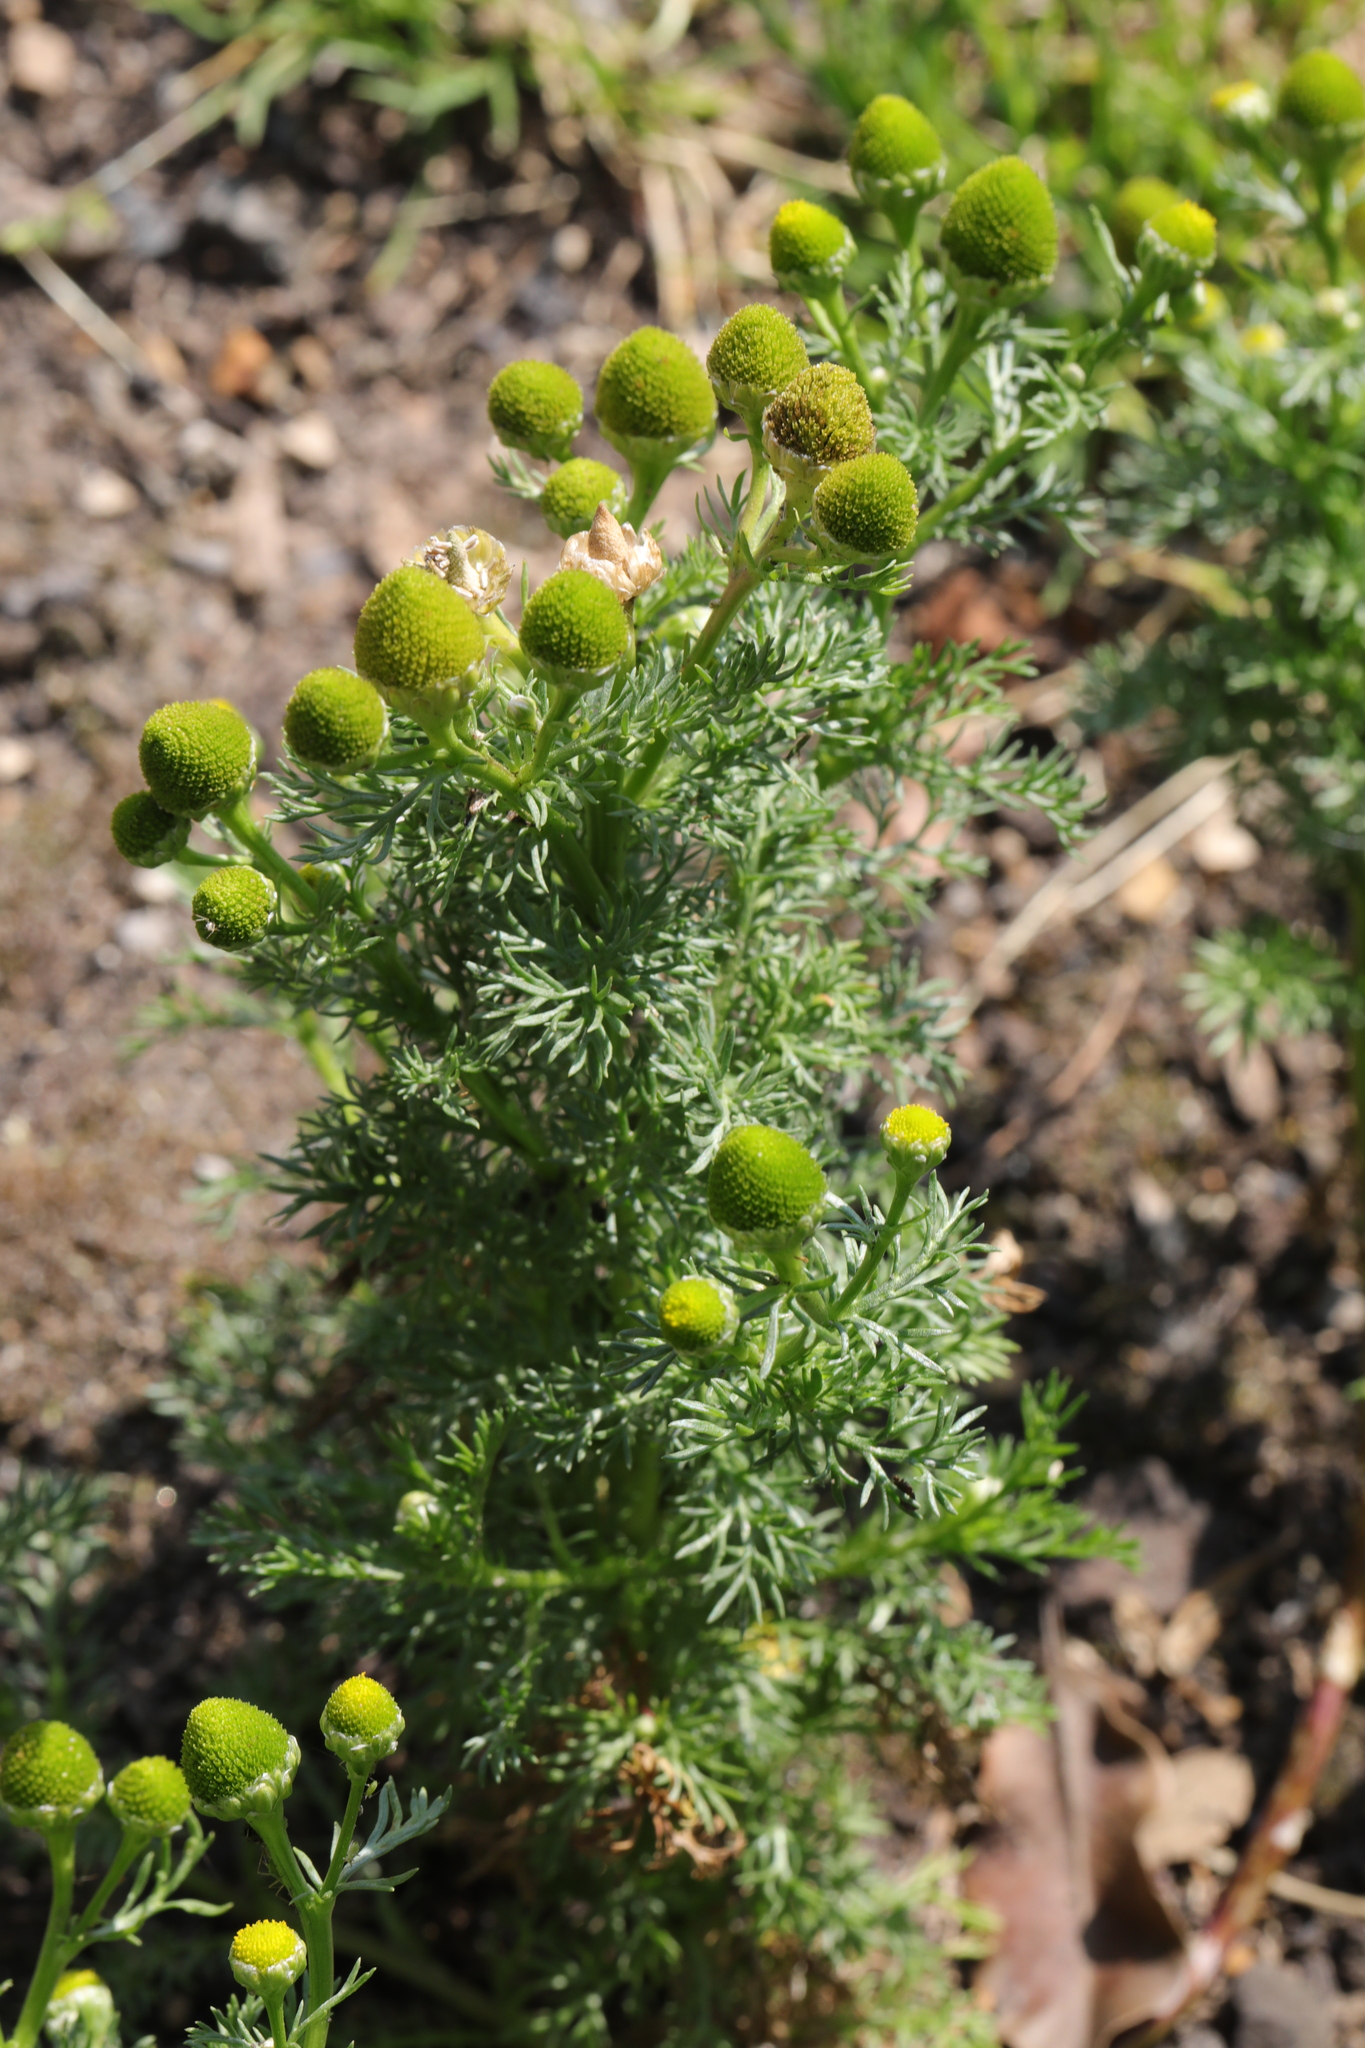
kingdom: Plantae
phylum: Tracheophyta
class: Magnoliopsida
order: Asterales
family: Asteraceae
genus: Matricaria
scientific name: Matricaria discoidea
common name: Disc mayweed
